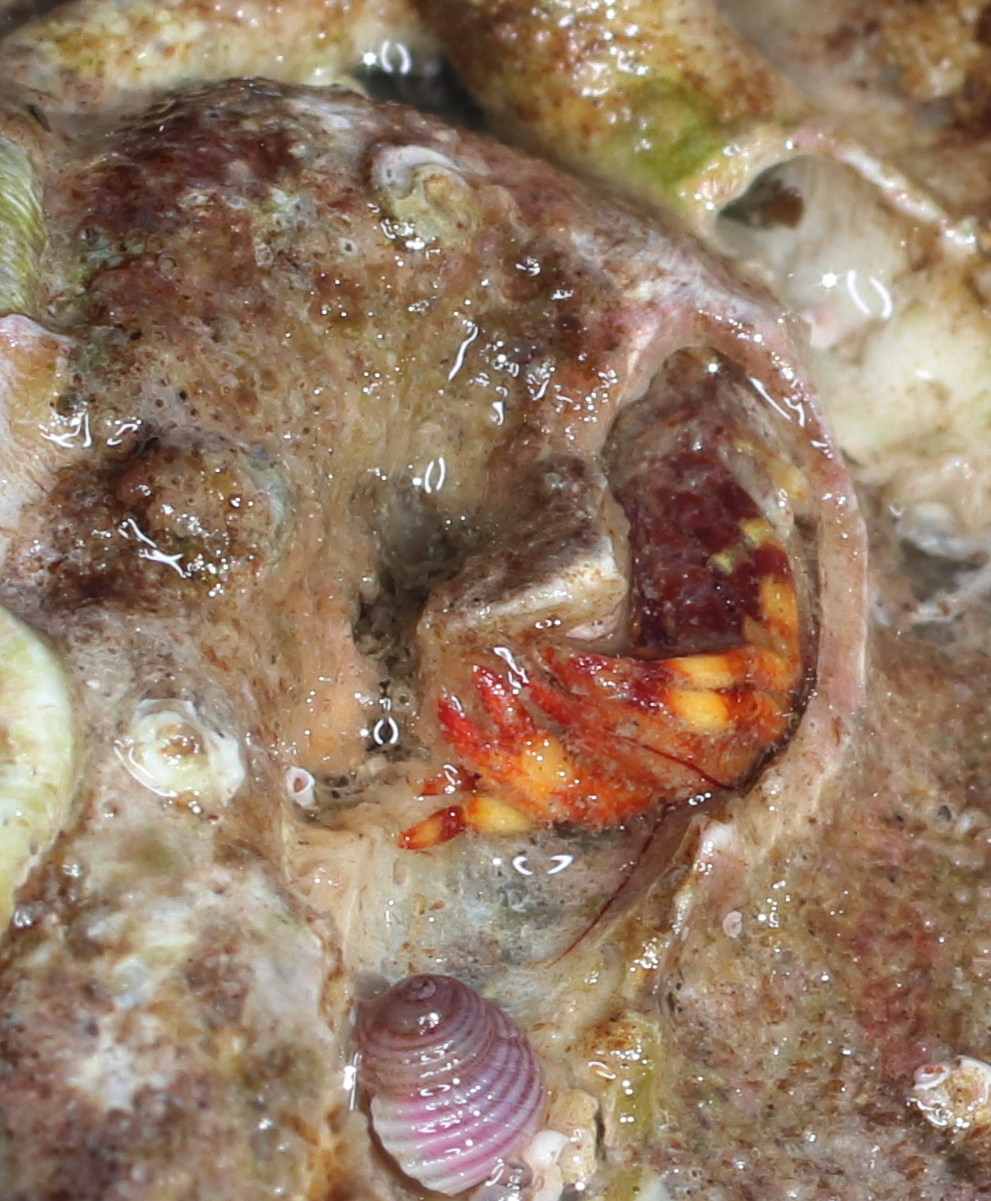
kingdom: Animalia
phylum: Arthropoda
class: Malacostraca
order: Decapoda
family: Paguridae
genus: Discorsopagurus
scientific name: Discorsopagurus schmitti
